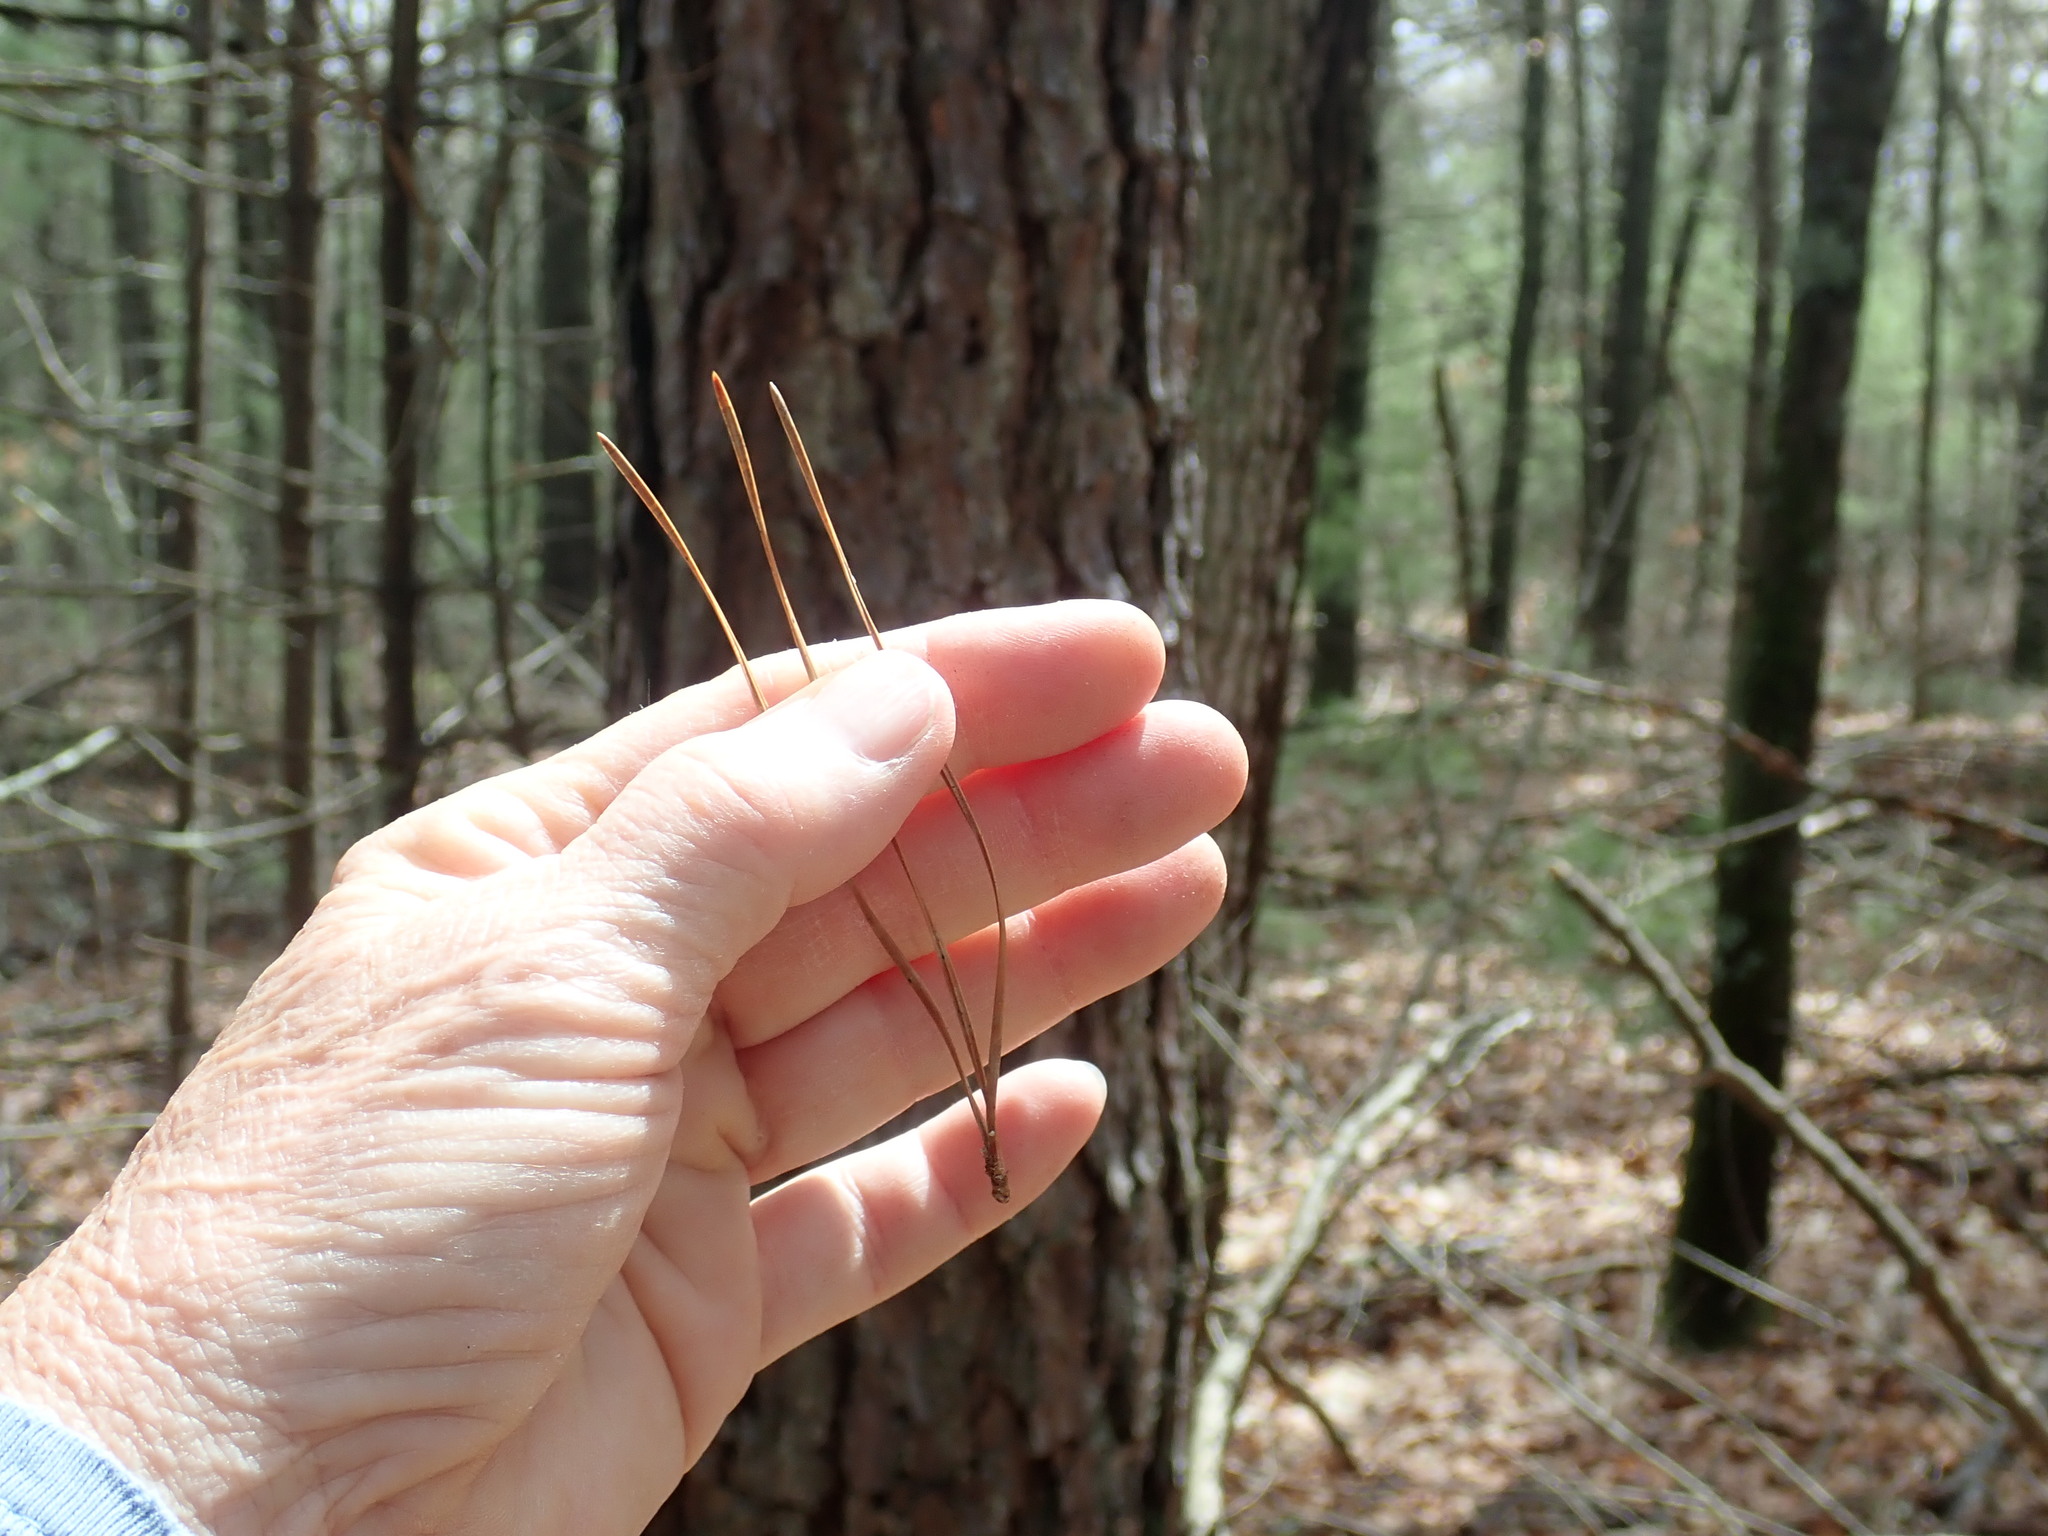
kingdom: Plantae
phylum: Tracheophyta
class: Pinopsida
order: Pinales
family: Pinaceae
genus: Pinus
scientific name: Pinus rigida
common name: Pitch pine
